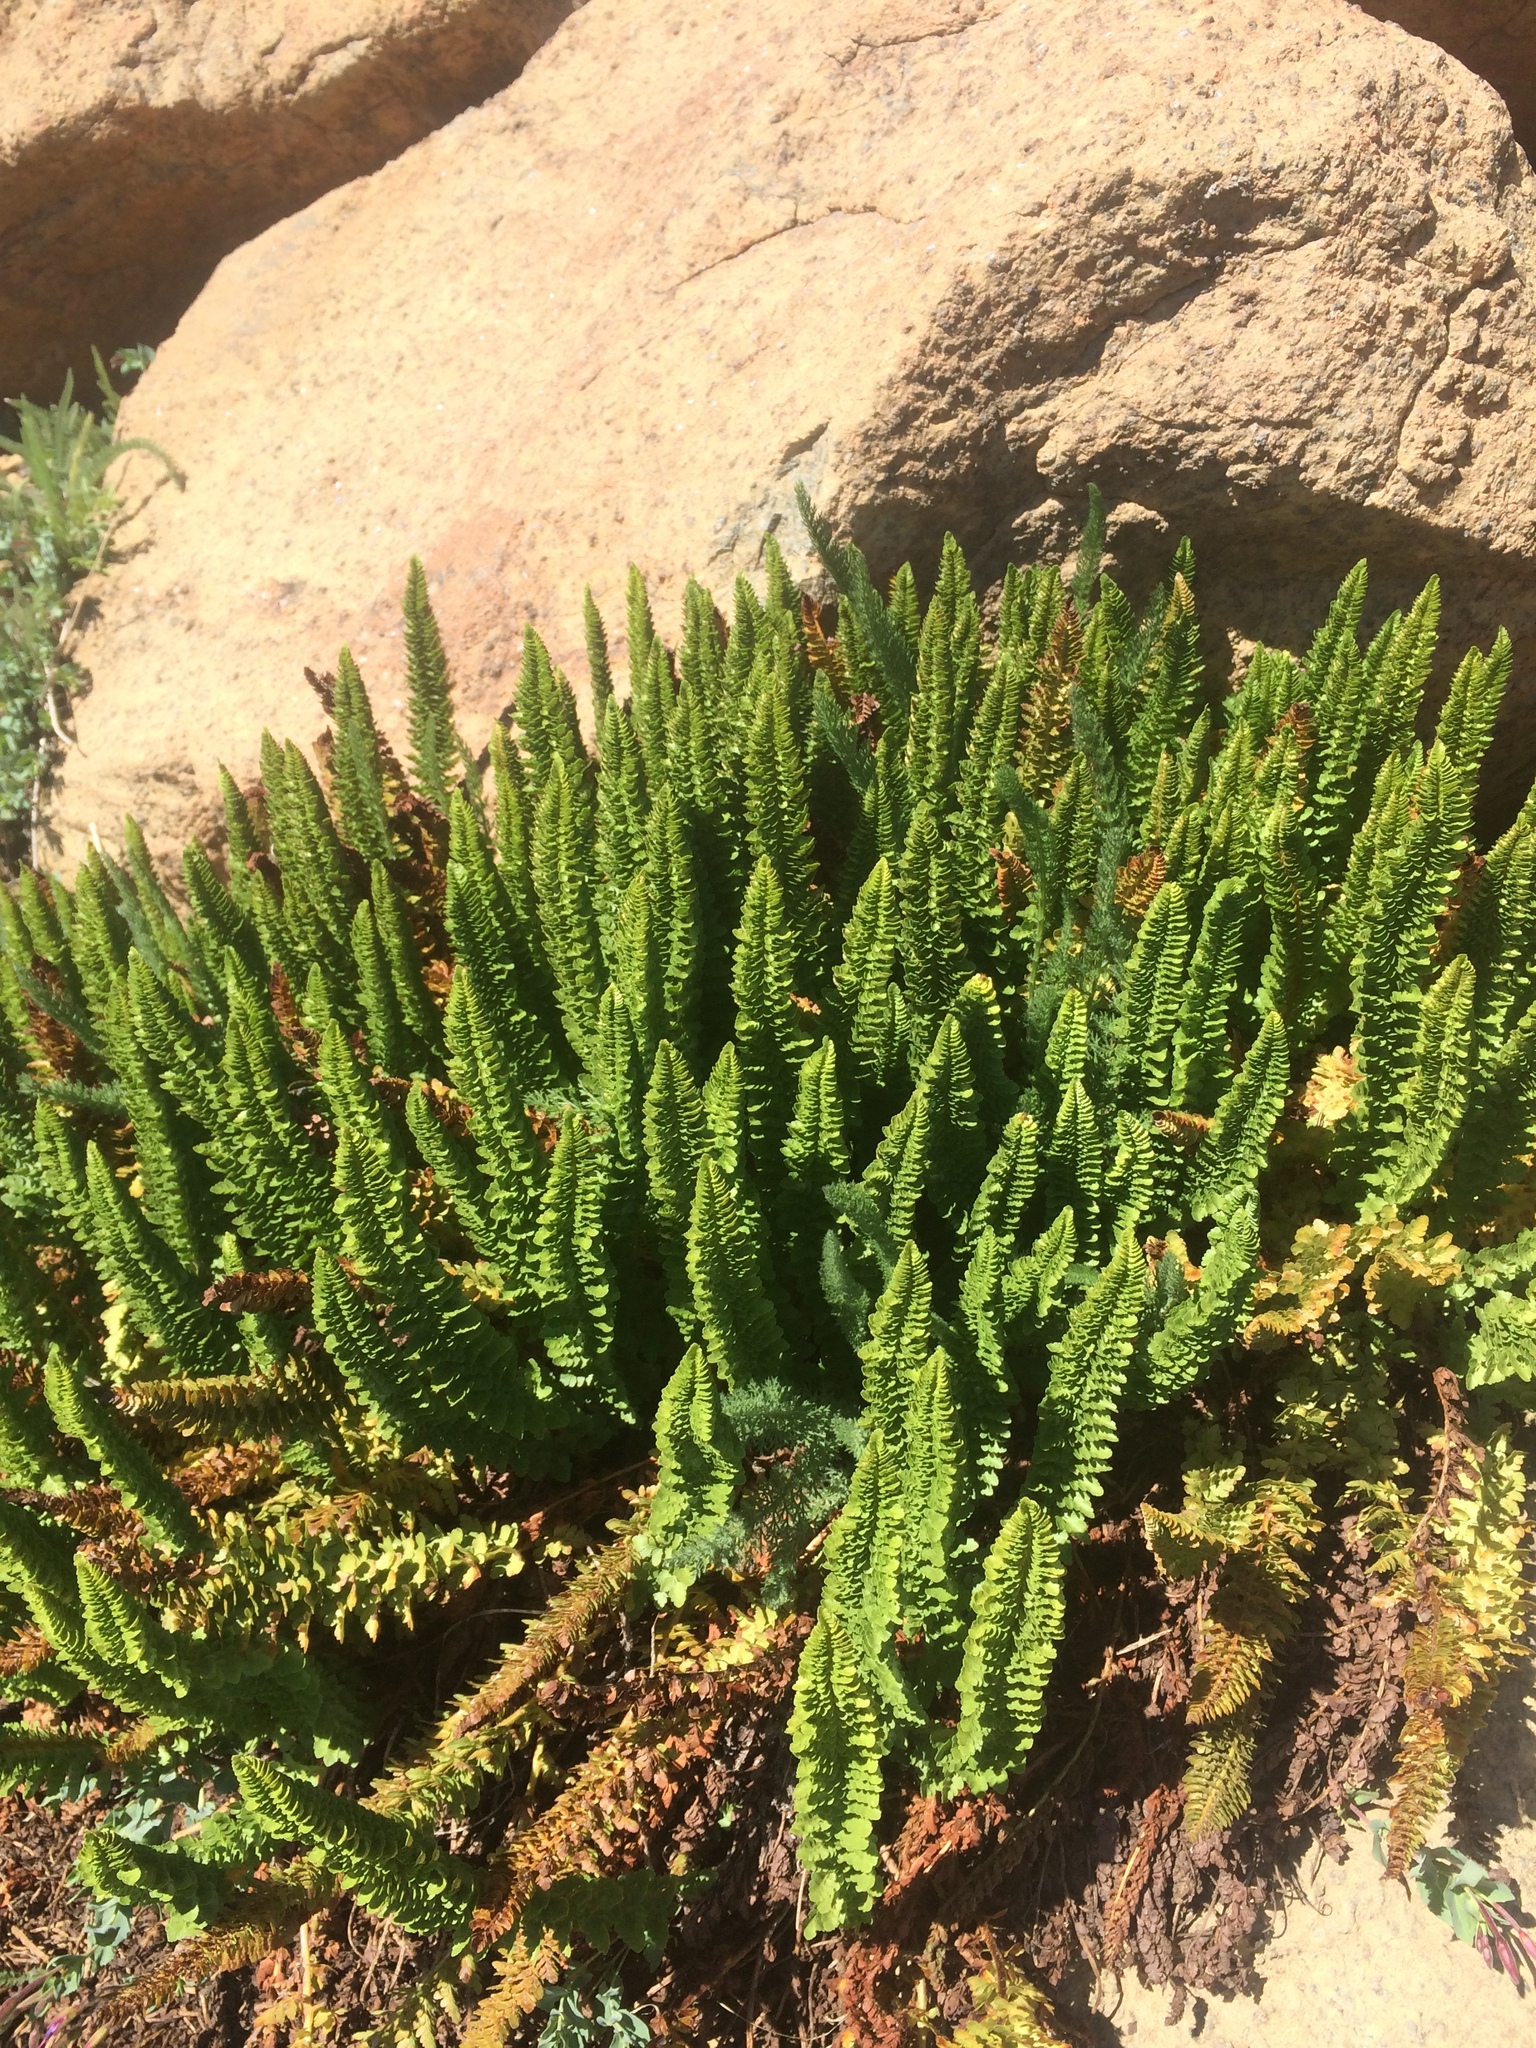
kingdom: Plantae
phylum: Tracheophyta
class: Polypodiopsida
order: Polypodiales
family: Dryopteridaceae
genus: Polystichum
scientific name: Polystichum lemmonii
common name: Lemmon's holly fern
